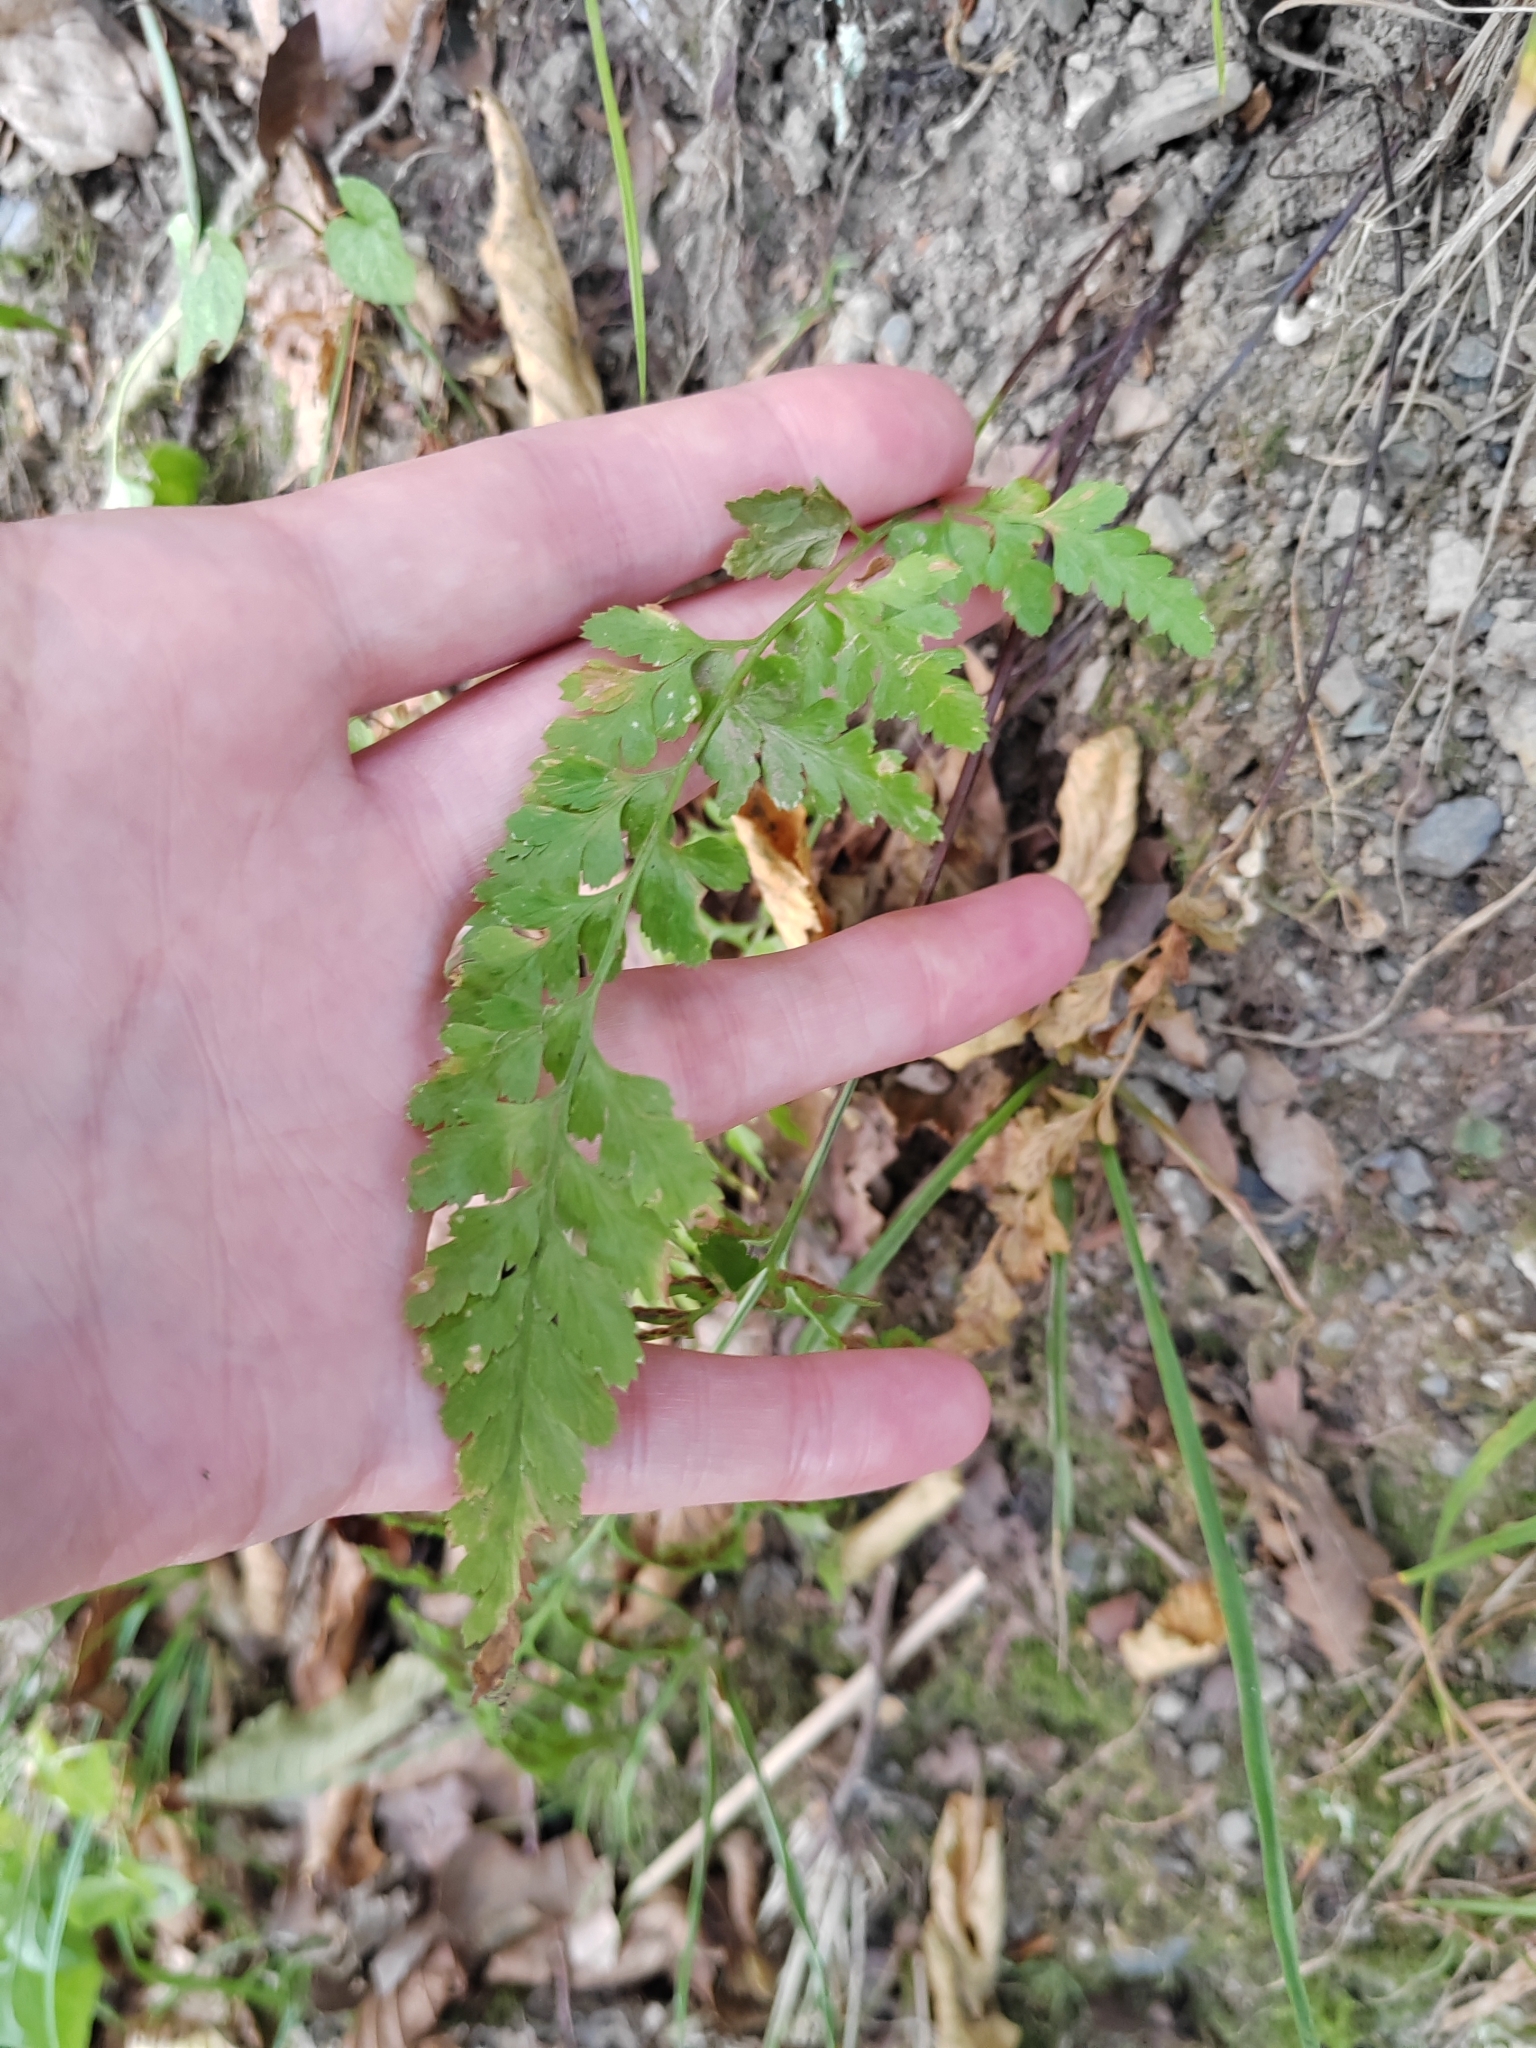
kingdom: Plantae
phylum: Tracheophyta
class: Polypodiopsida
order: Polypodiales
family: Cystopteridaceae
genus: Cystopteris
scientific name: Cystopteris fragilis
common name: Brittle bladder fern
